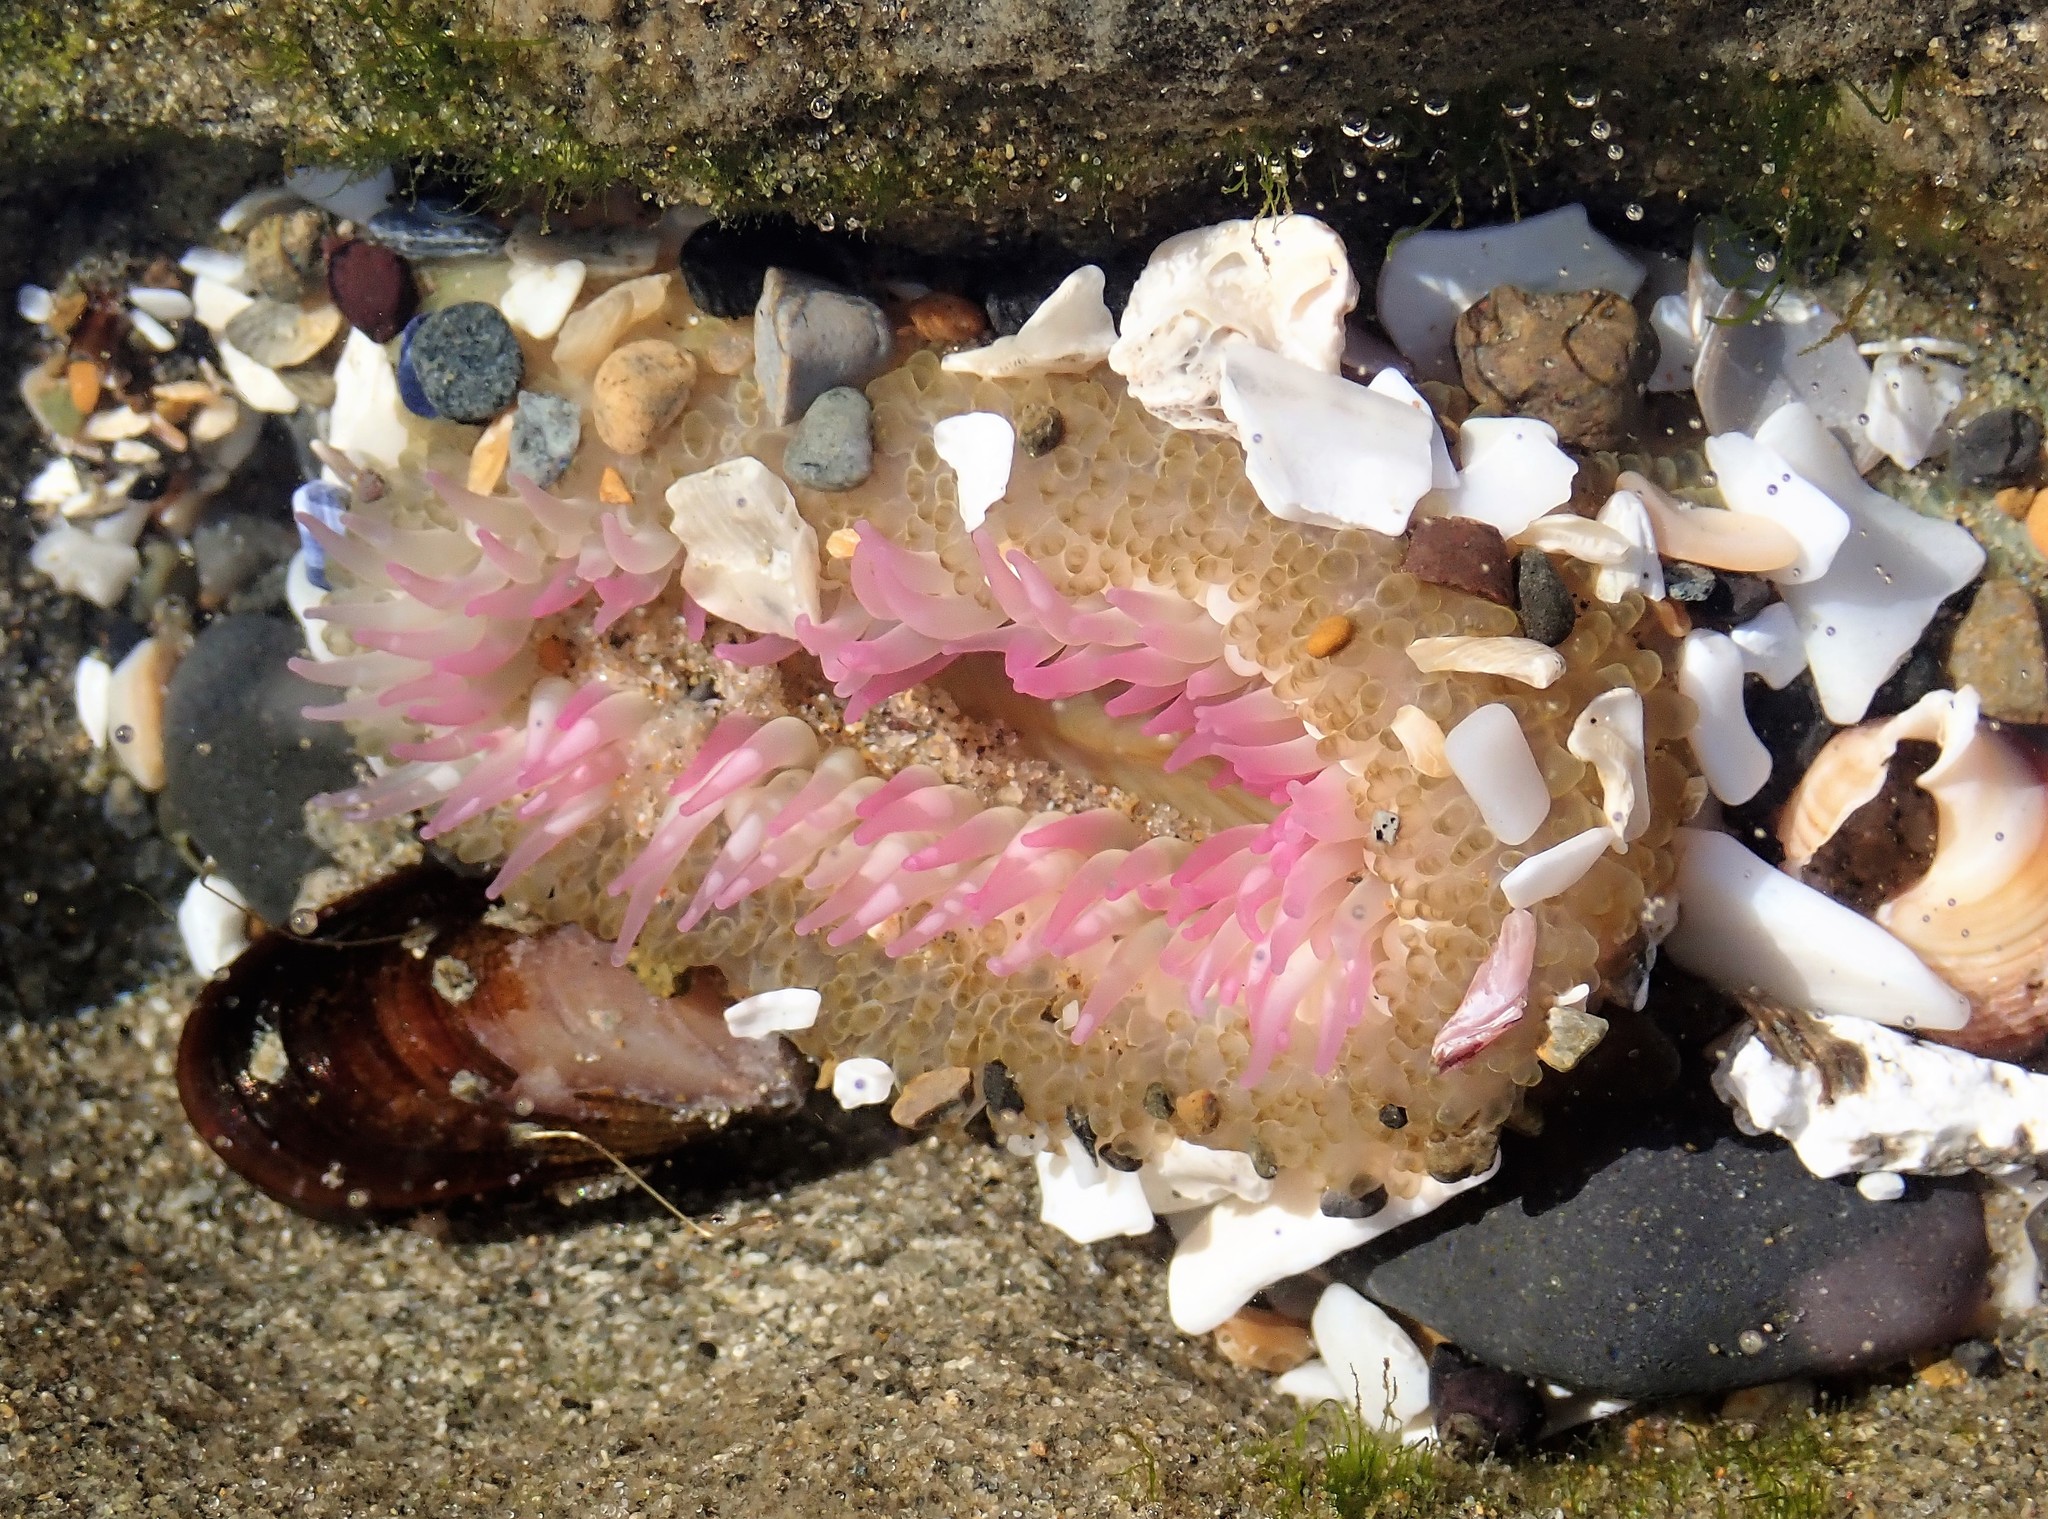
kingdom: Animalia
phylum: Cnidaria
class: Anthozoa
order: Actiniaria
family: Actiniidae
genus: Anthopleura
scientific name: Anthopleura elegantissima
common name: Clonal anemone
